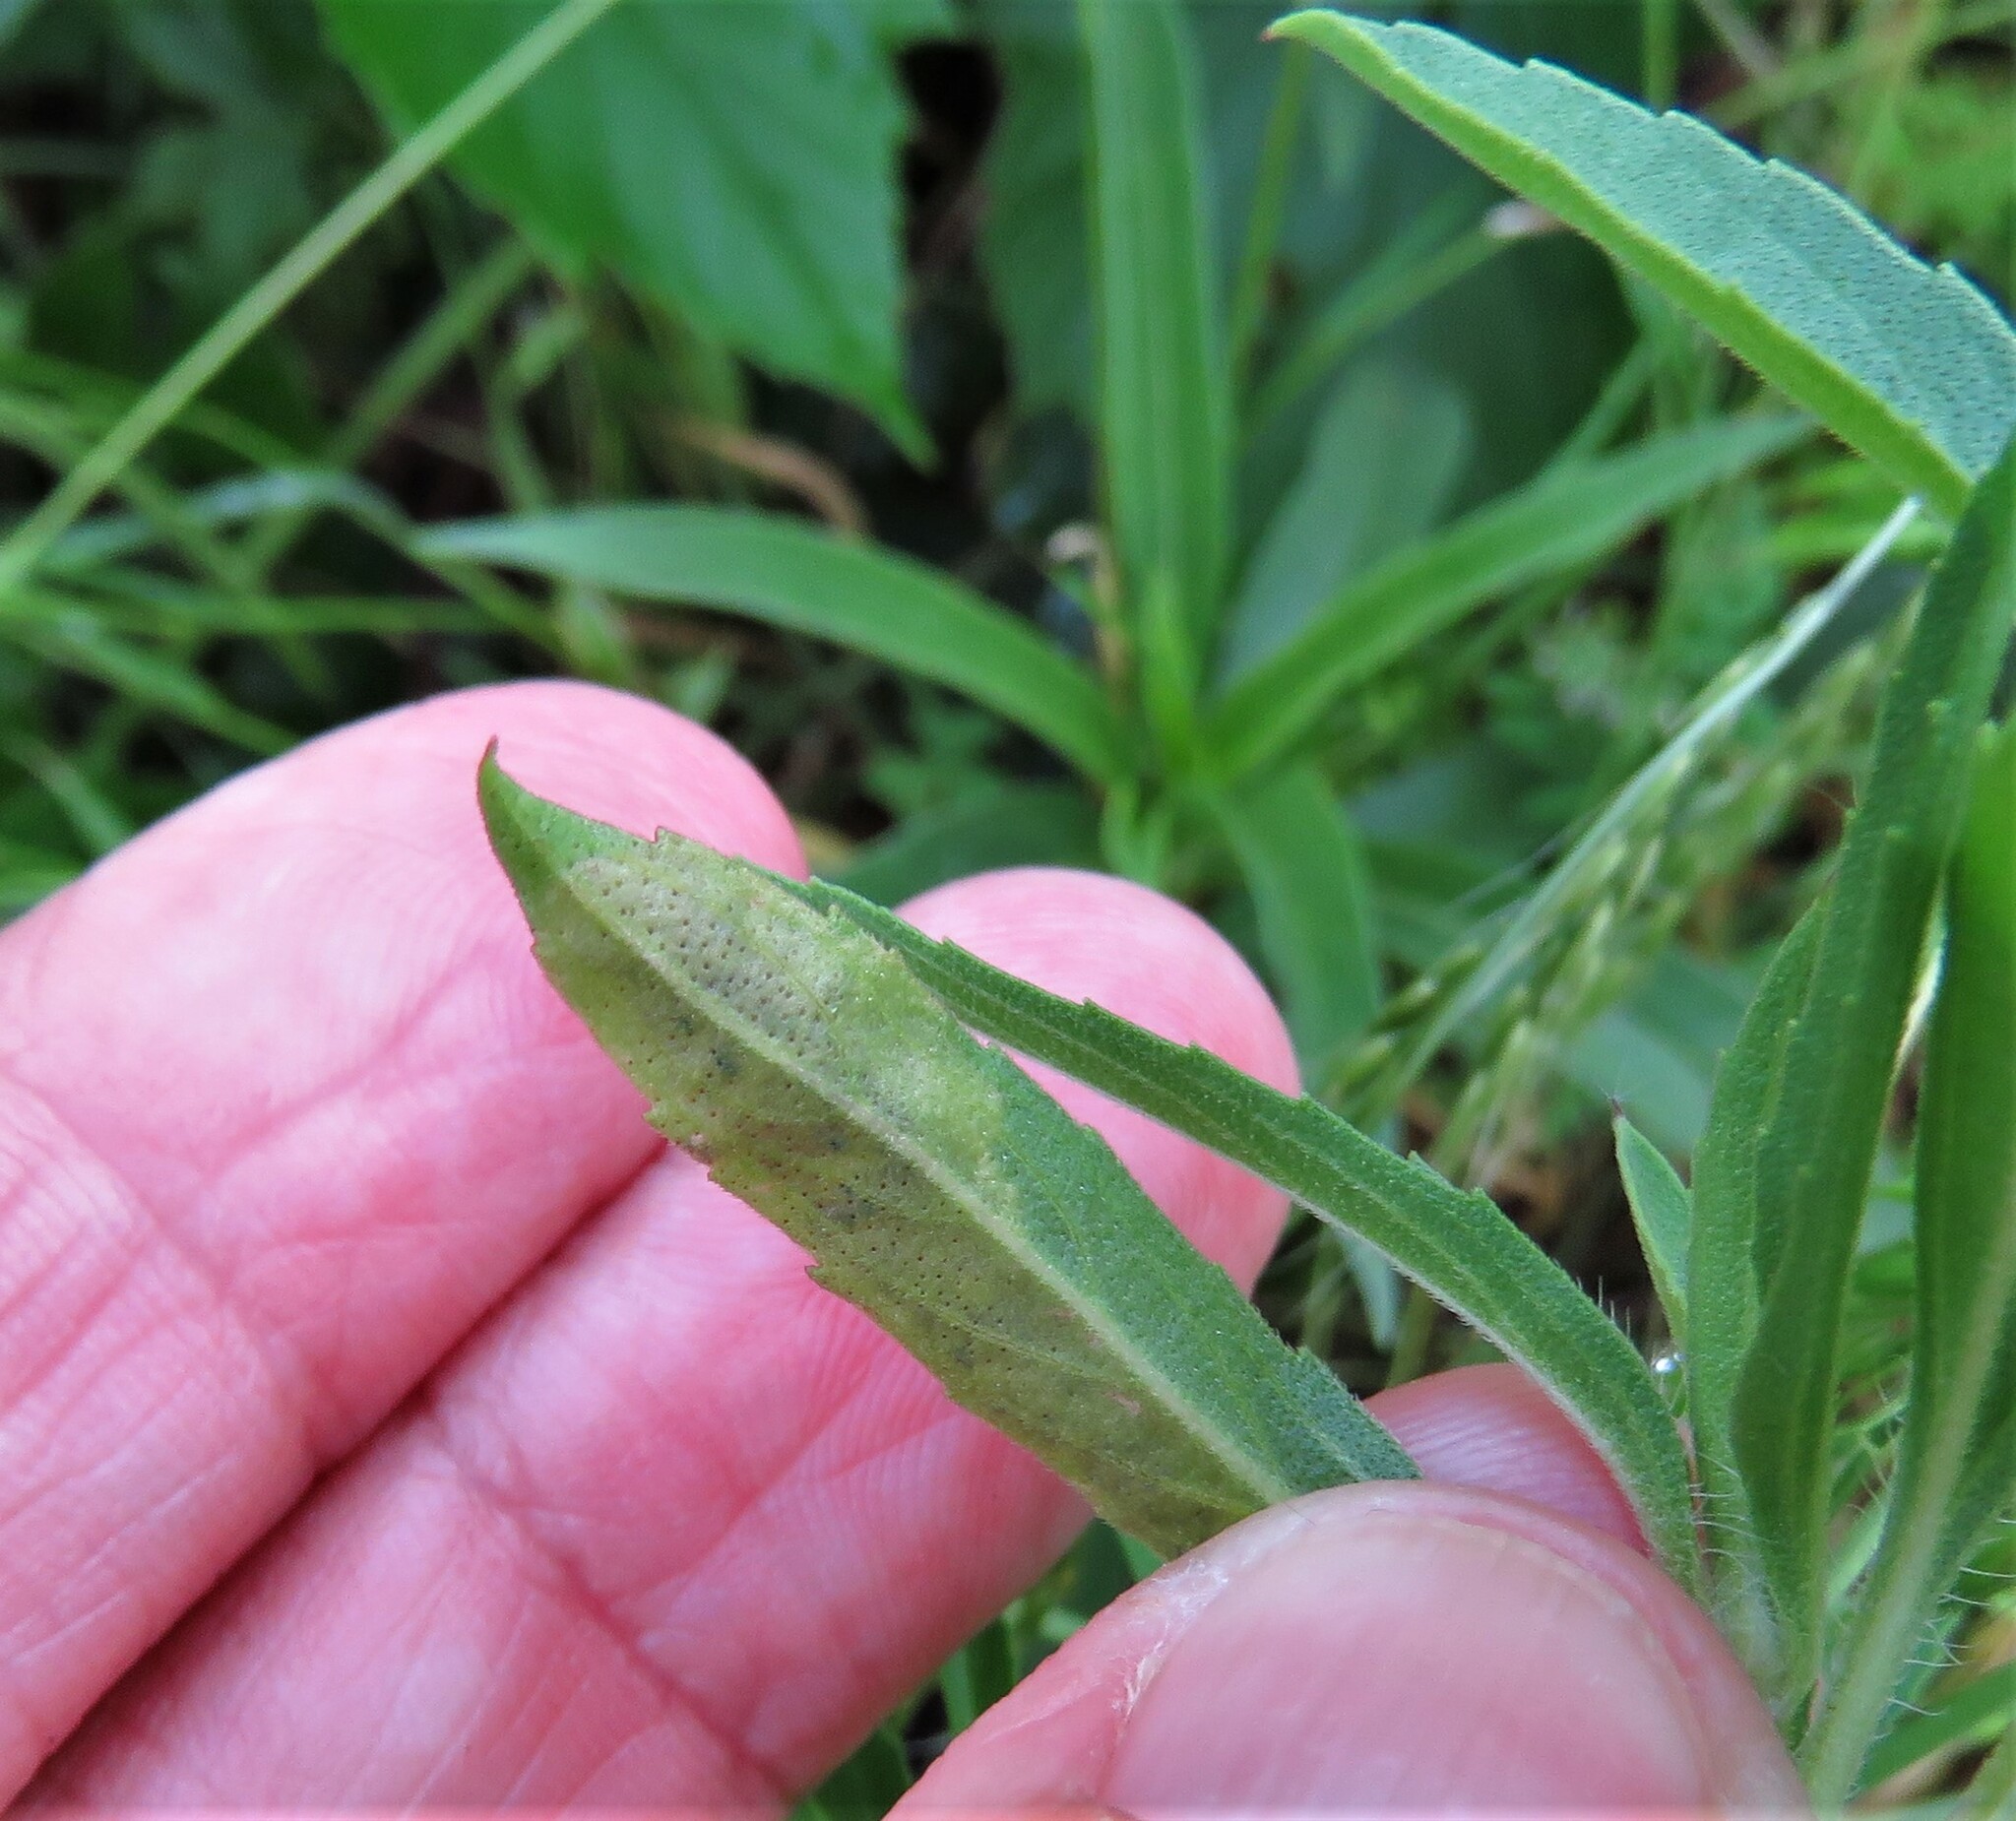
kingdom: Animalia
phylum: Arthropoda
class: Insecta
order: Diptera
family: Agromyzidae
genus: Calycomyza
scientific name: Calycomyza menthae
